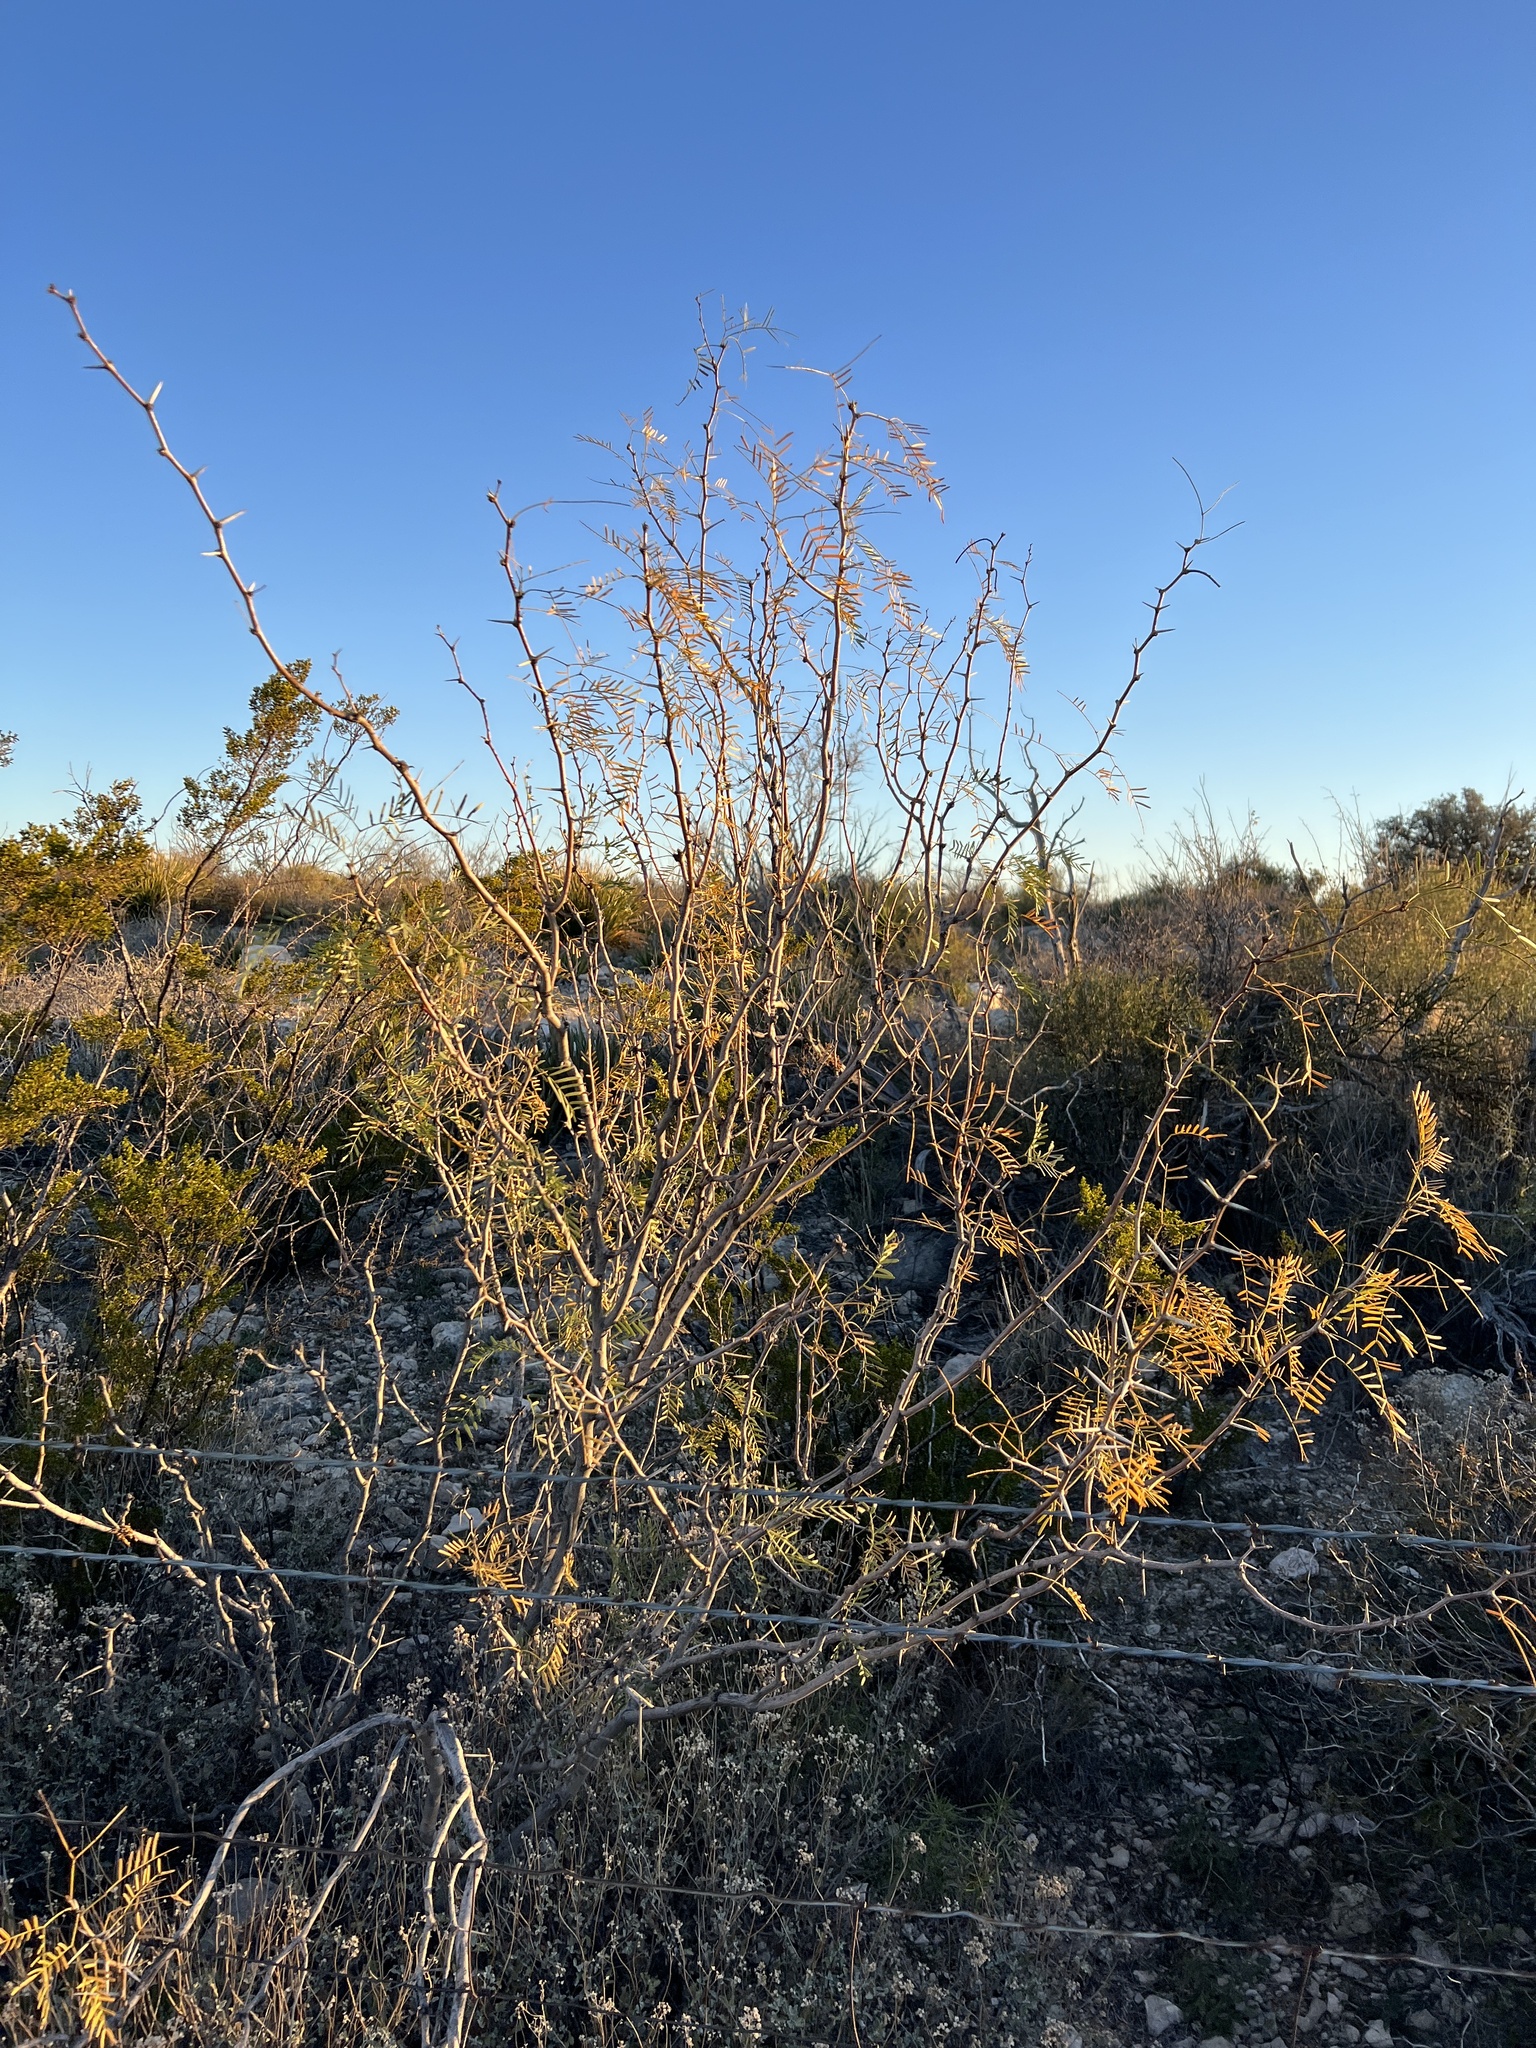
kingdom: Plantae
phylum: Tracheophyta
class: Magnoliopsida
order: Fabales
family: Fabaceae
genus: Prosopis
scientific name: Prosopis glandulosa
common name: Honey mesquite
